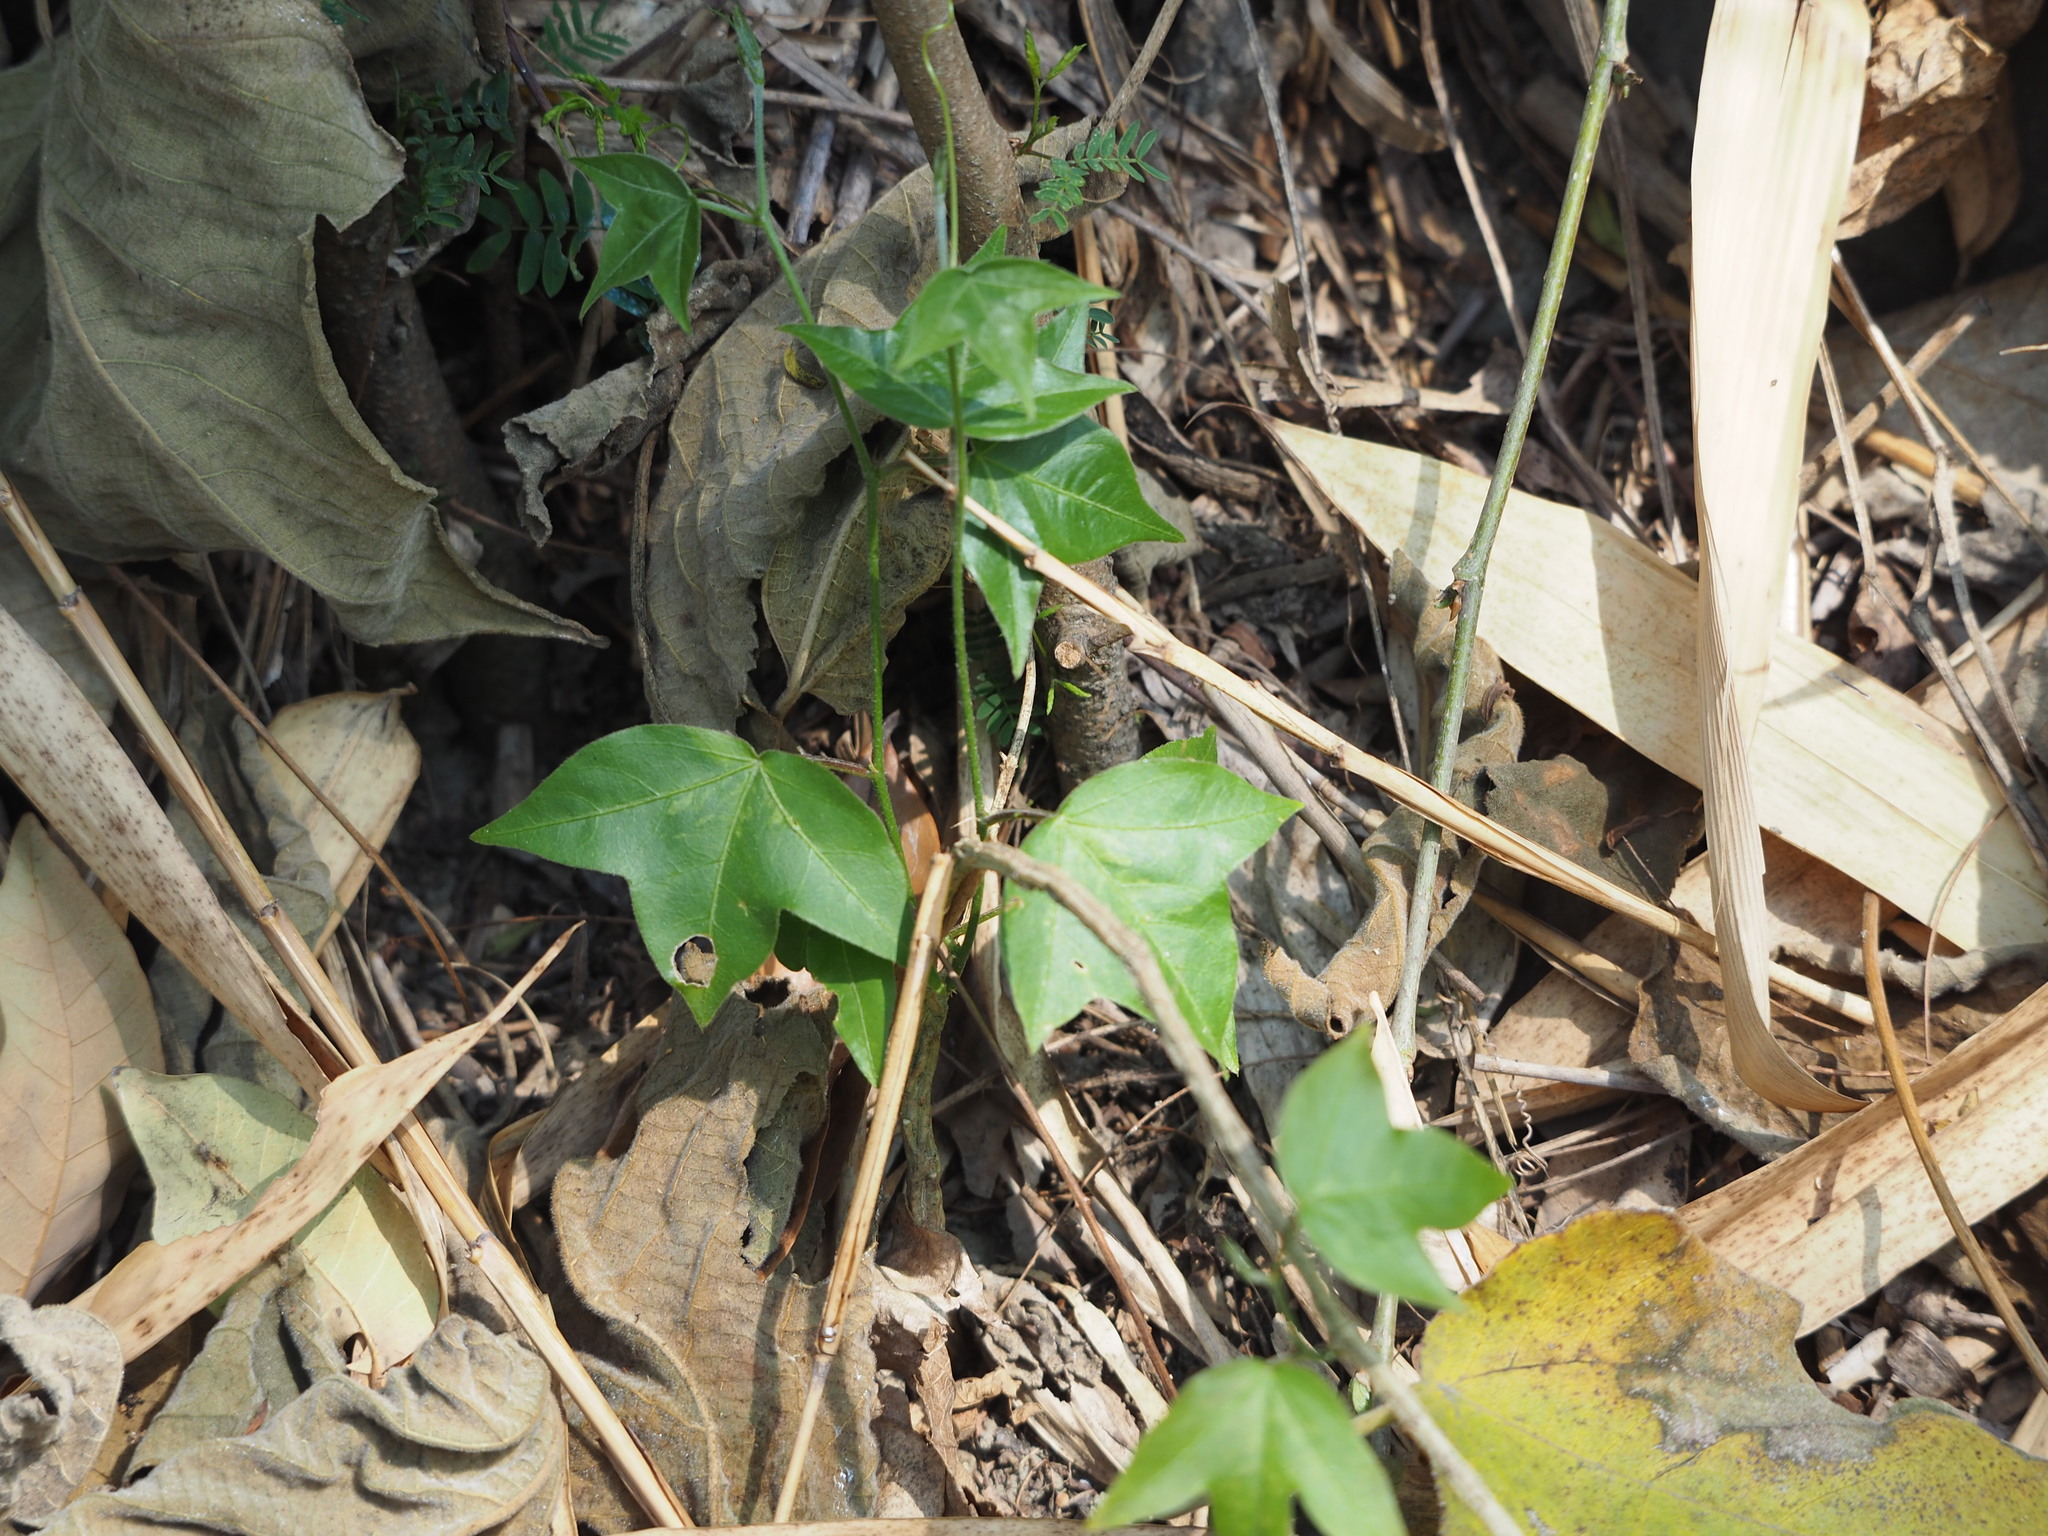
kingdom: Plantae
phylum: Tracheophyta
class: Magnoliopsida
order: Malpighiales
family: Passifloraceae
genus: Passiflora
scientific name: Passiflora suberosa
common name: Wild passionfruit
